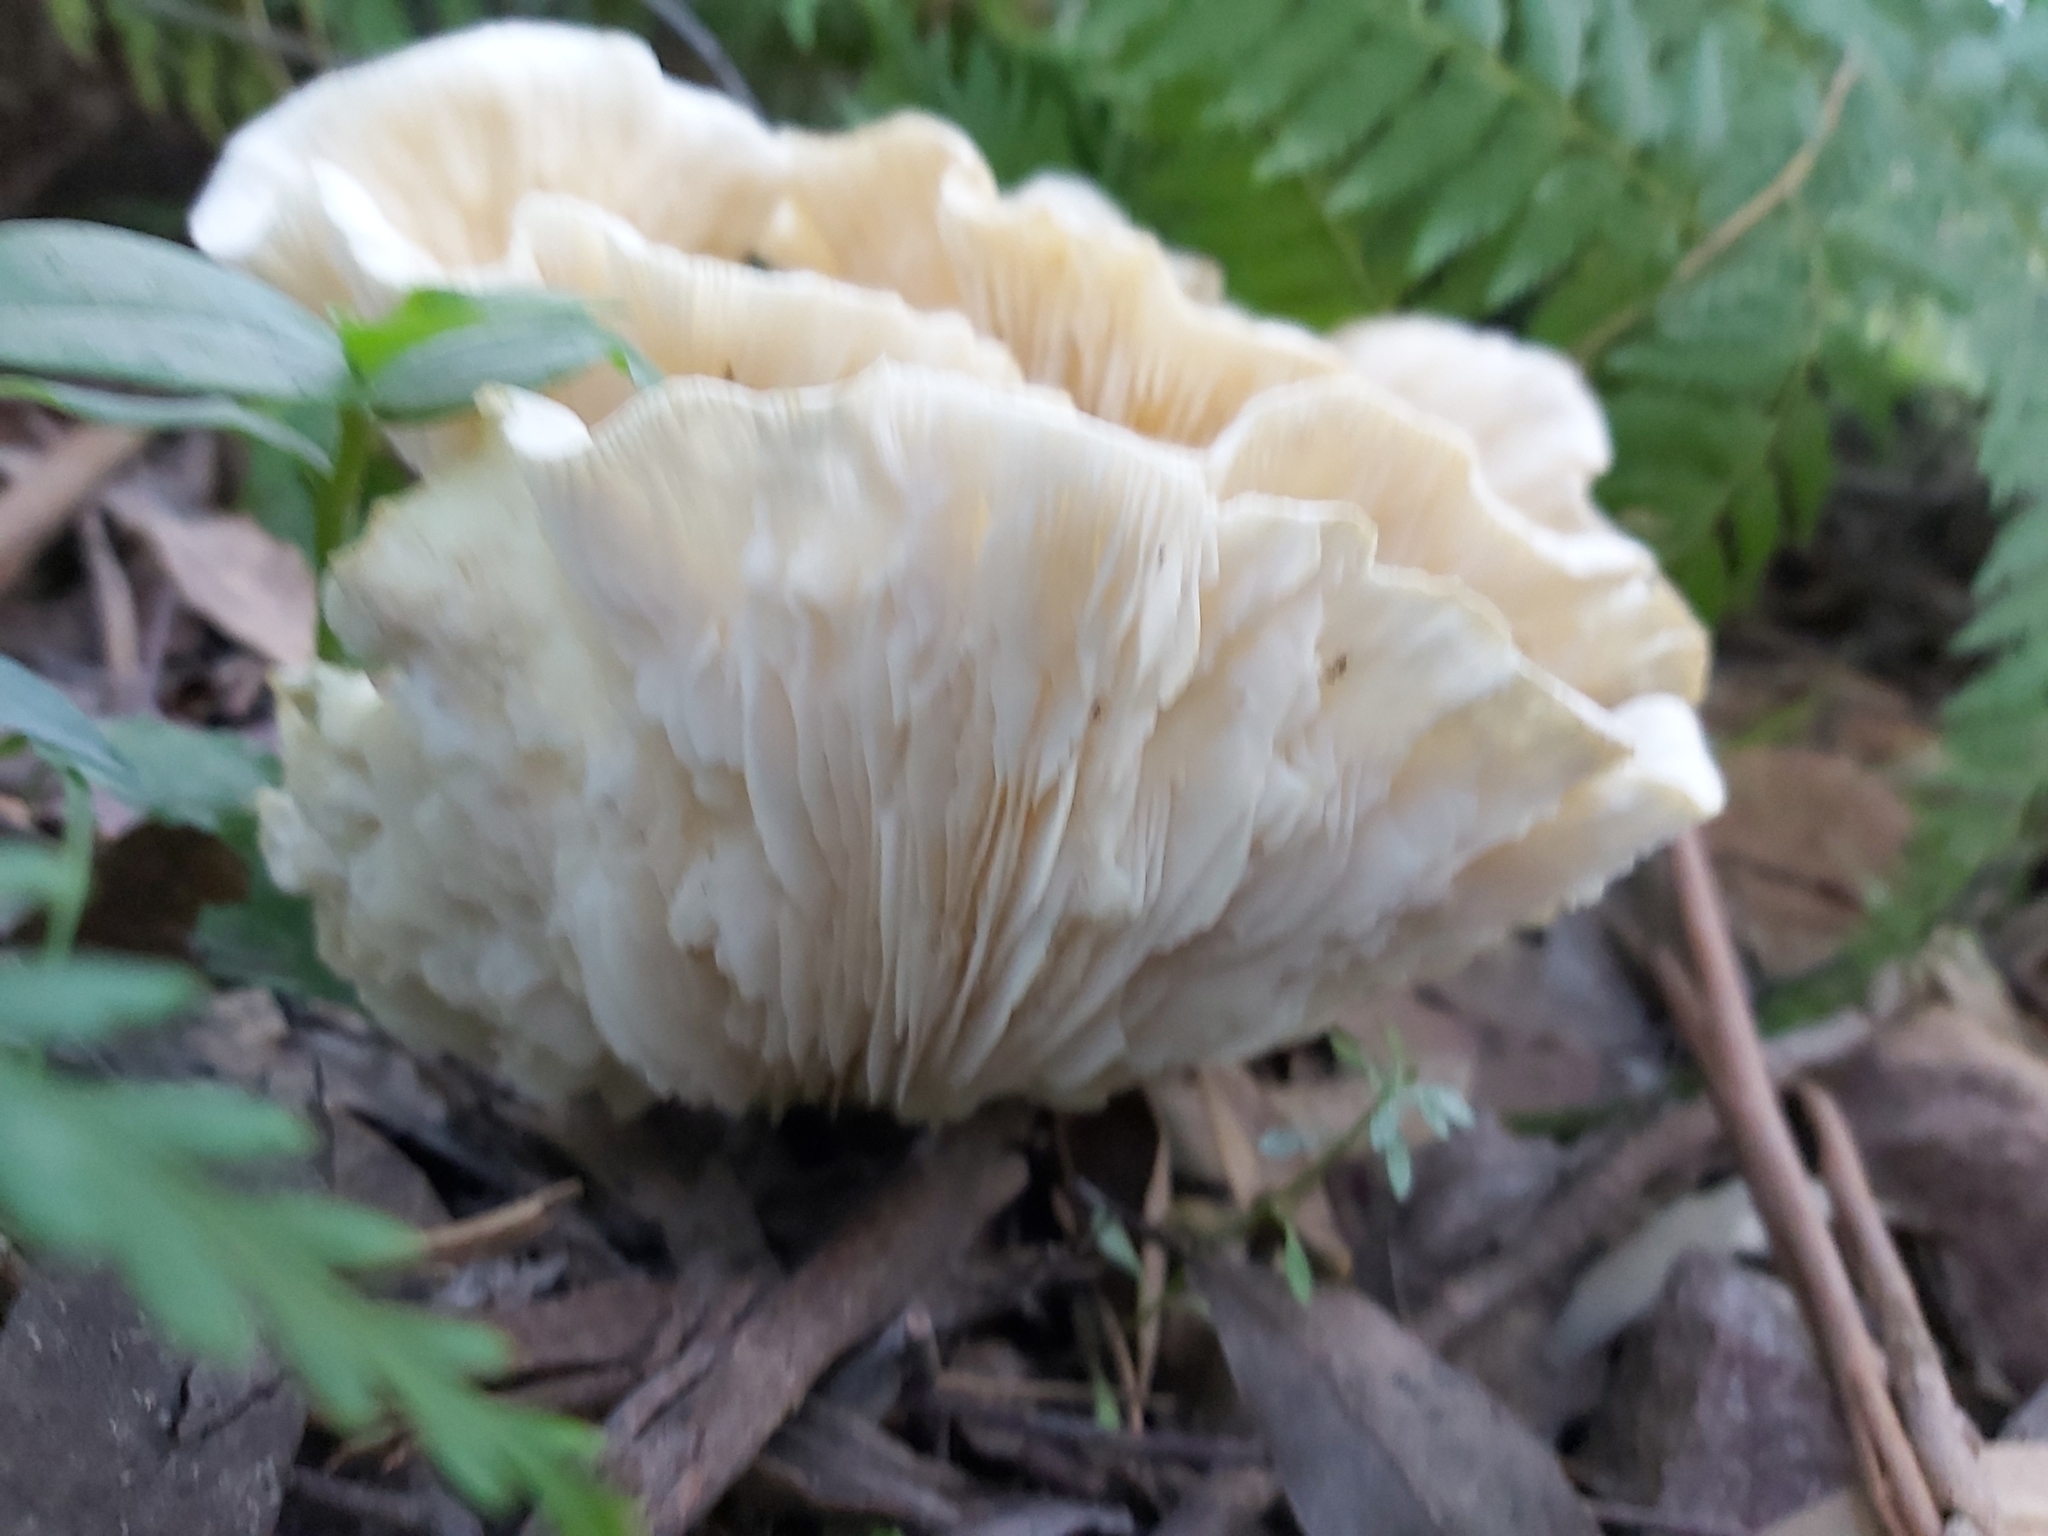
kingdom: Fungi
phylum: Basidiomycota
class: Agaricomycetes
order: Agaricales
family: Omphalotaceae
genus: Omphalotus
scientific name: Omphalotus nidiformis
